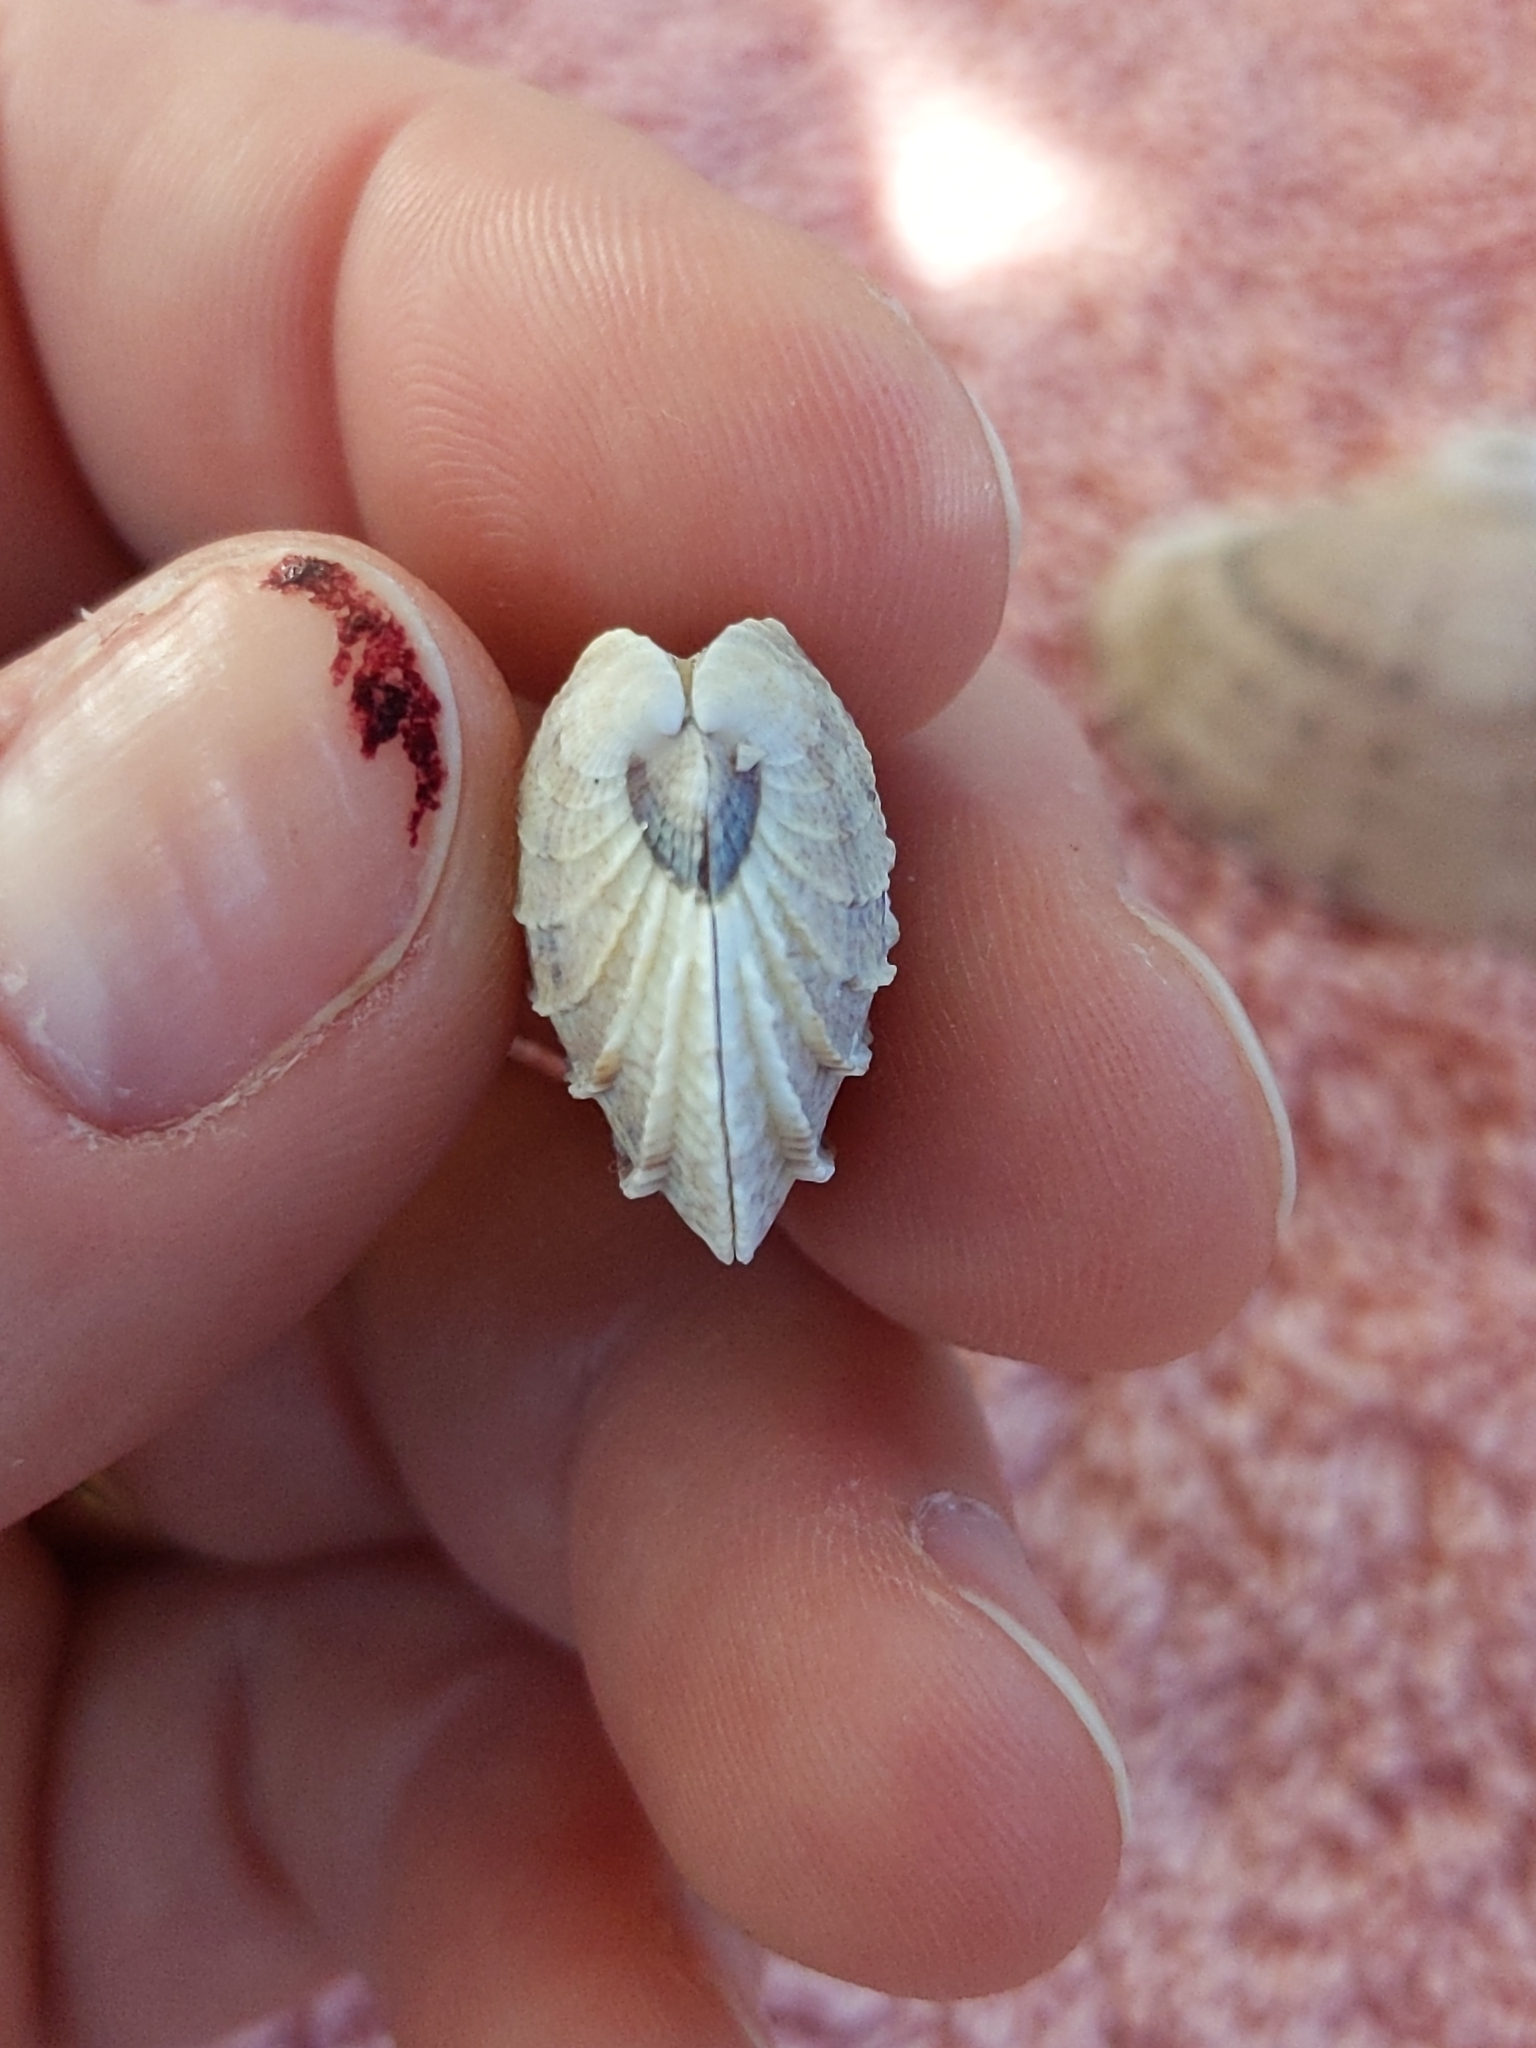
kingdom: Animalia
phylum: Mollusca
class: Bivalvia
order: Venerida
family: Veneridae
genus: Chione
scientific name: Chione elevata
